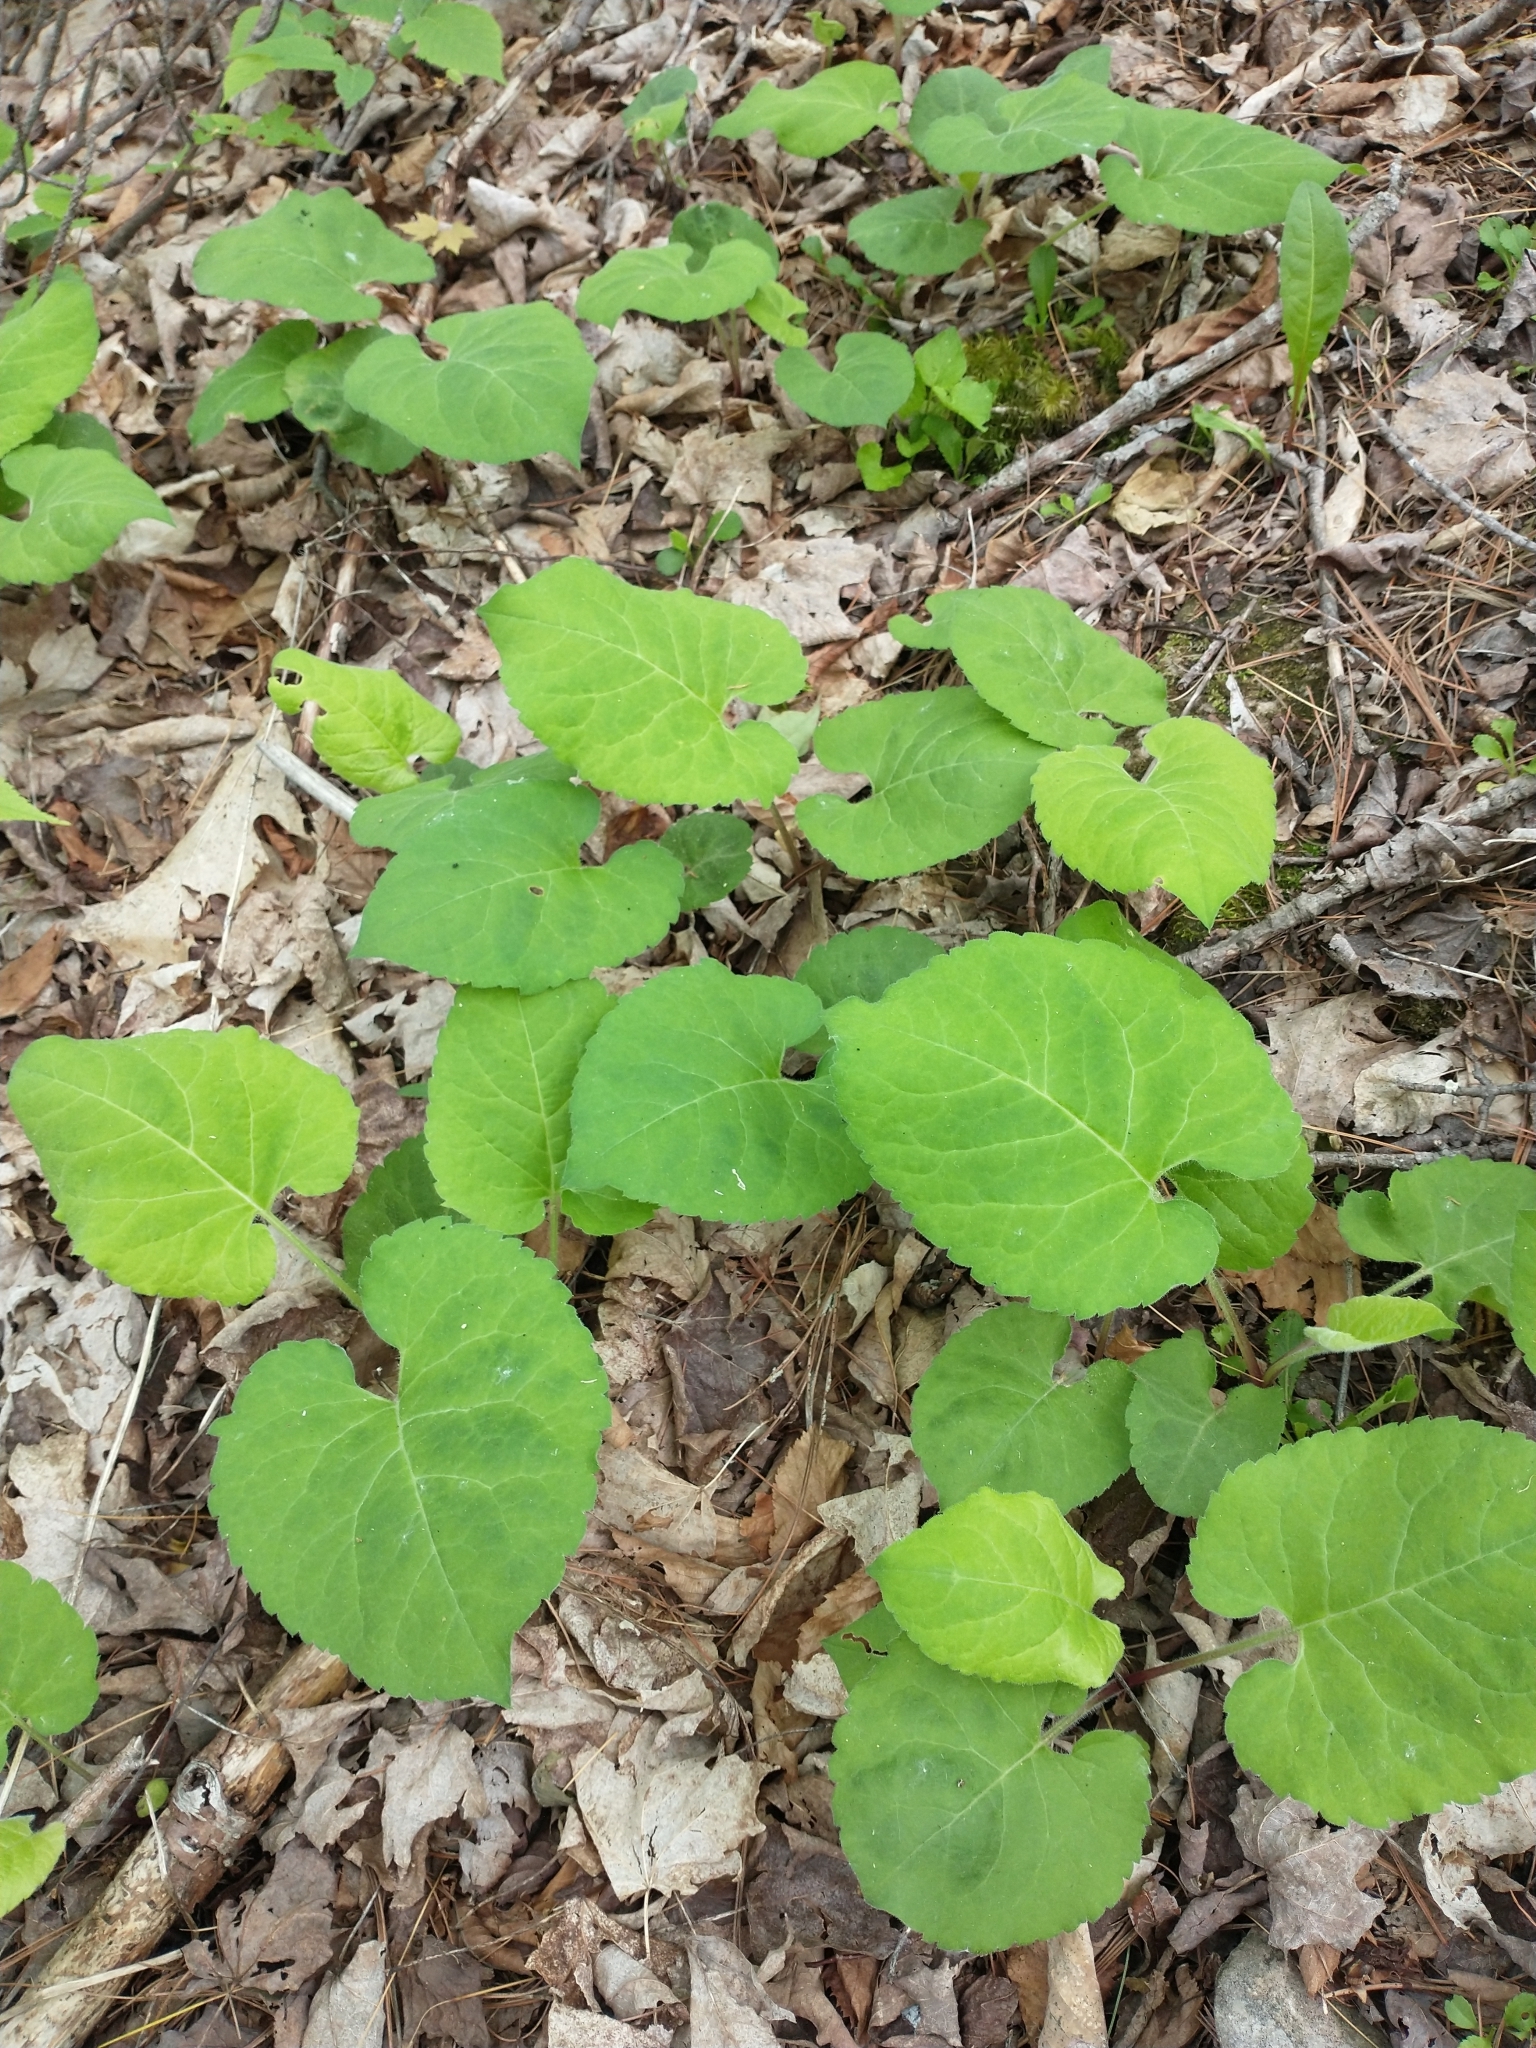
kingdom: Plantae
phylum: Tracheophyta
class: Magnoliopsida
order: Asterales
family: Asteraceae
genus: Eurybia
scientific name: Eurybia macrophylla
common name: Big-leaved aster
